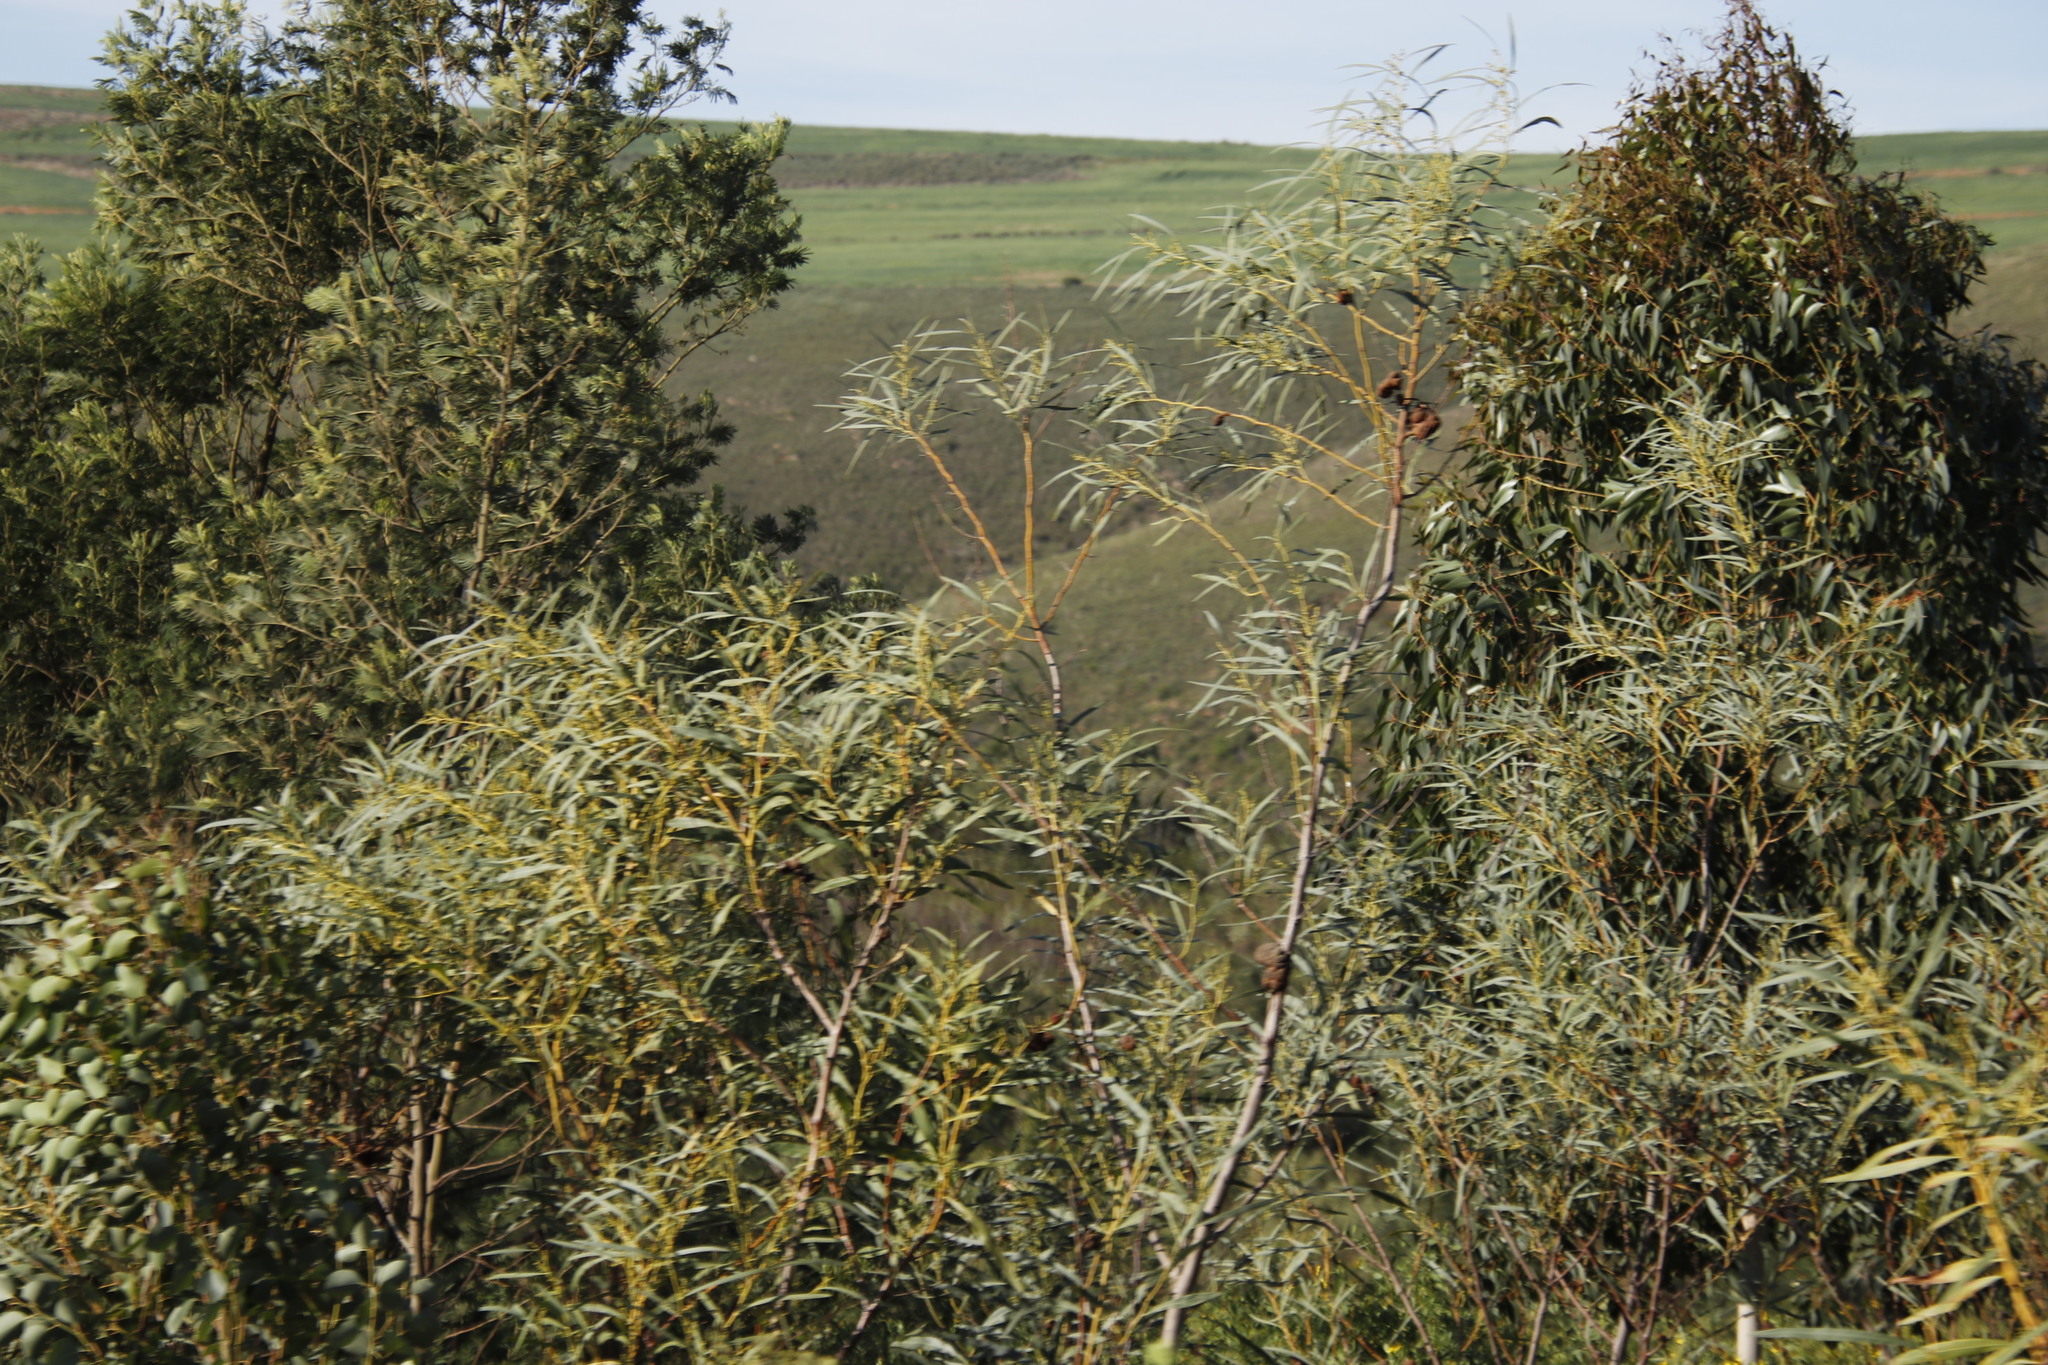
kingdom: Plantae
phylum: Tracheophyta
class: Magnoliopsida
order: Fabales
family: Fabaceae
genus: Acacia
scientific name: Acacia saligna
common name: Orange wattle
